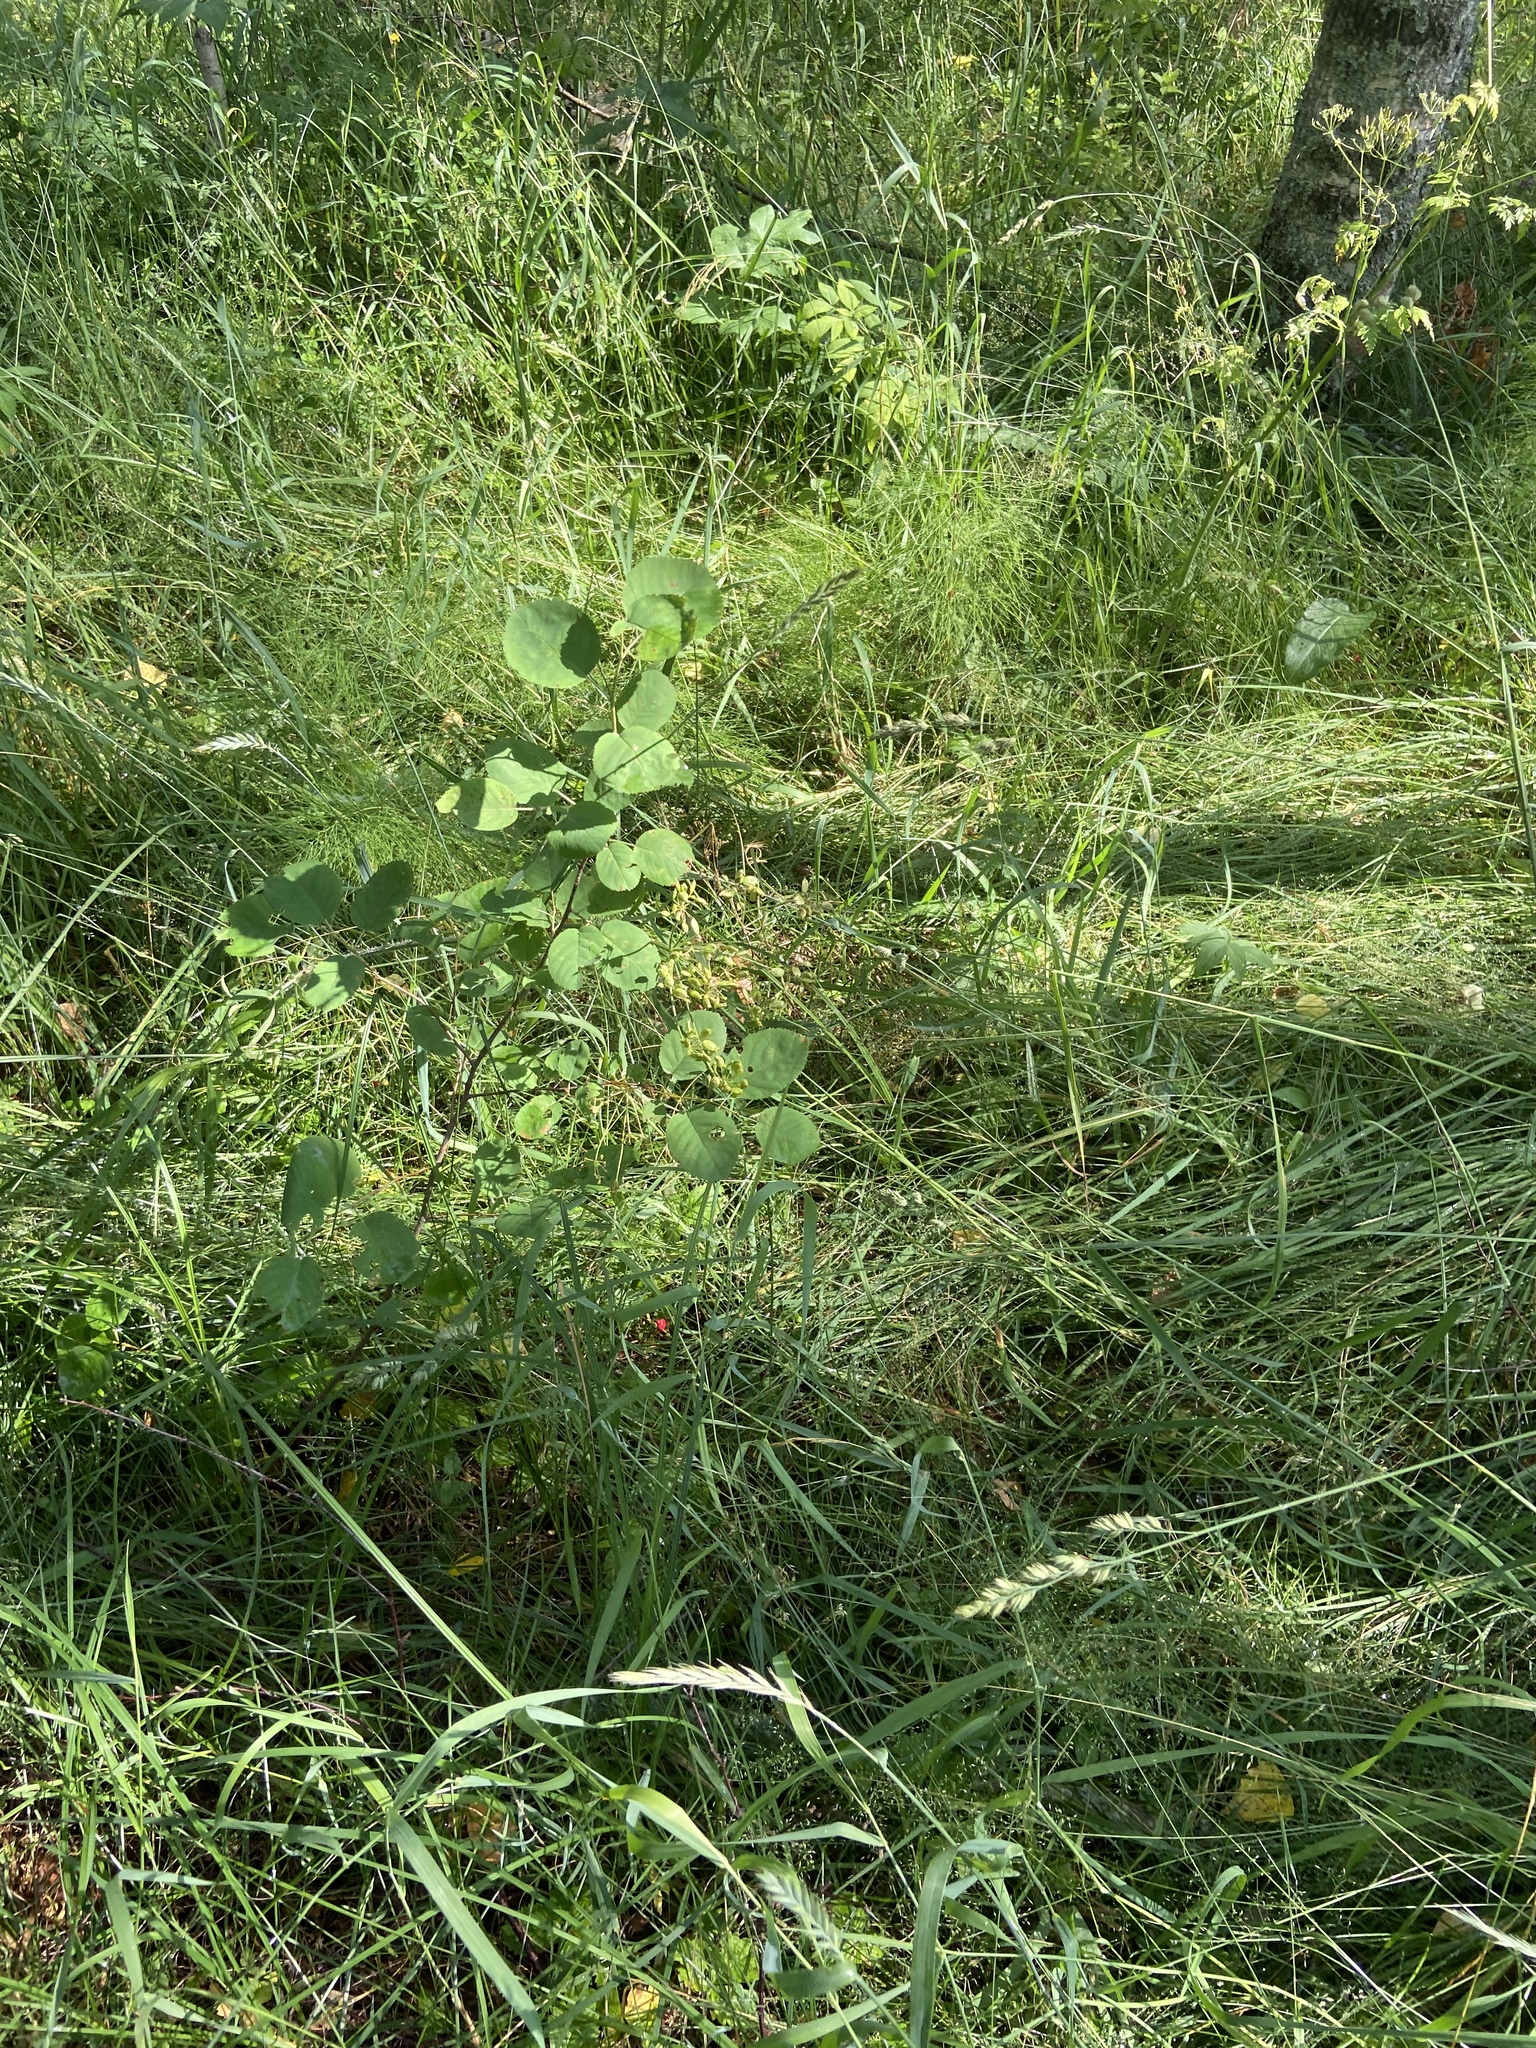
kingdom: Plantae
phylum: Tracheophyta
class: Magnoliopsida
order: Rosales
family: Rosaceae
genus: Amelanchier
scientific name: Amelanchier
